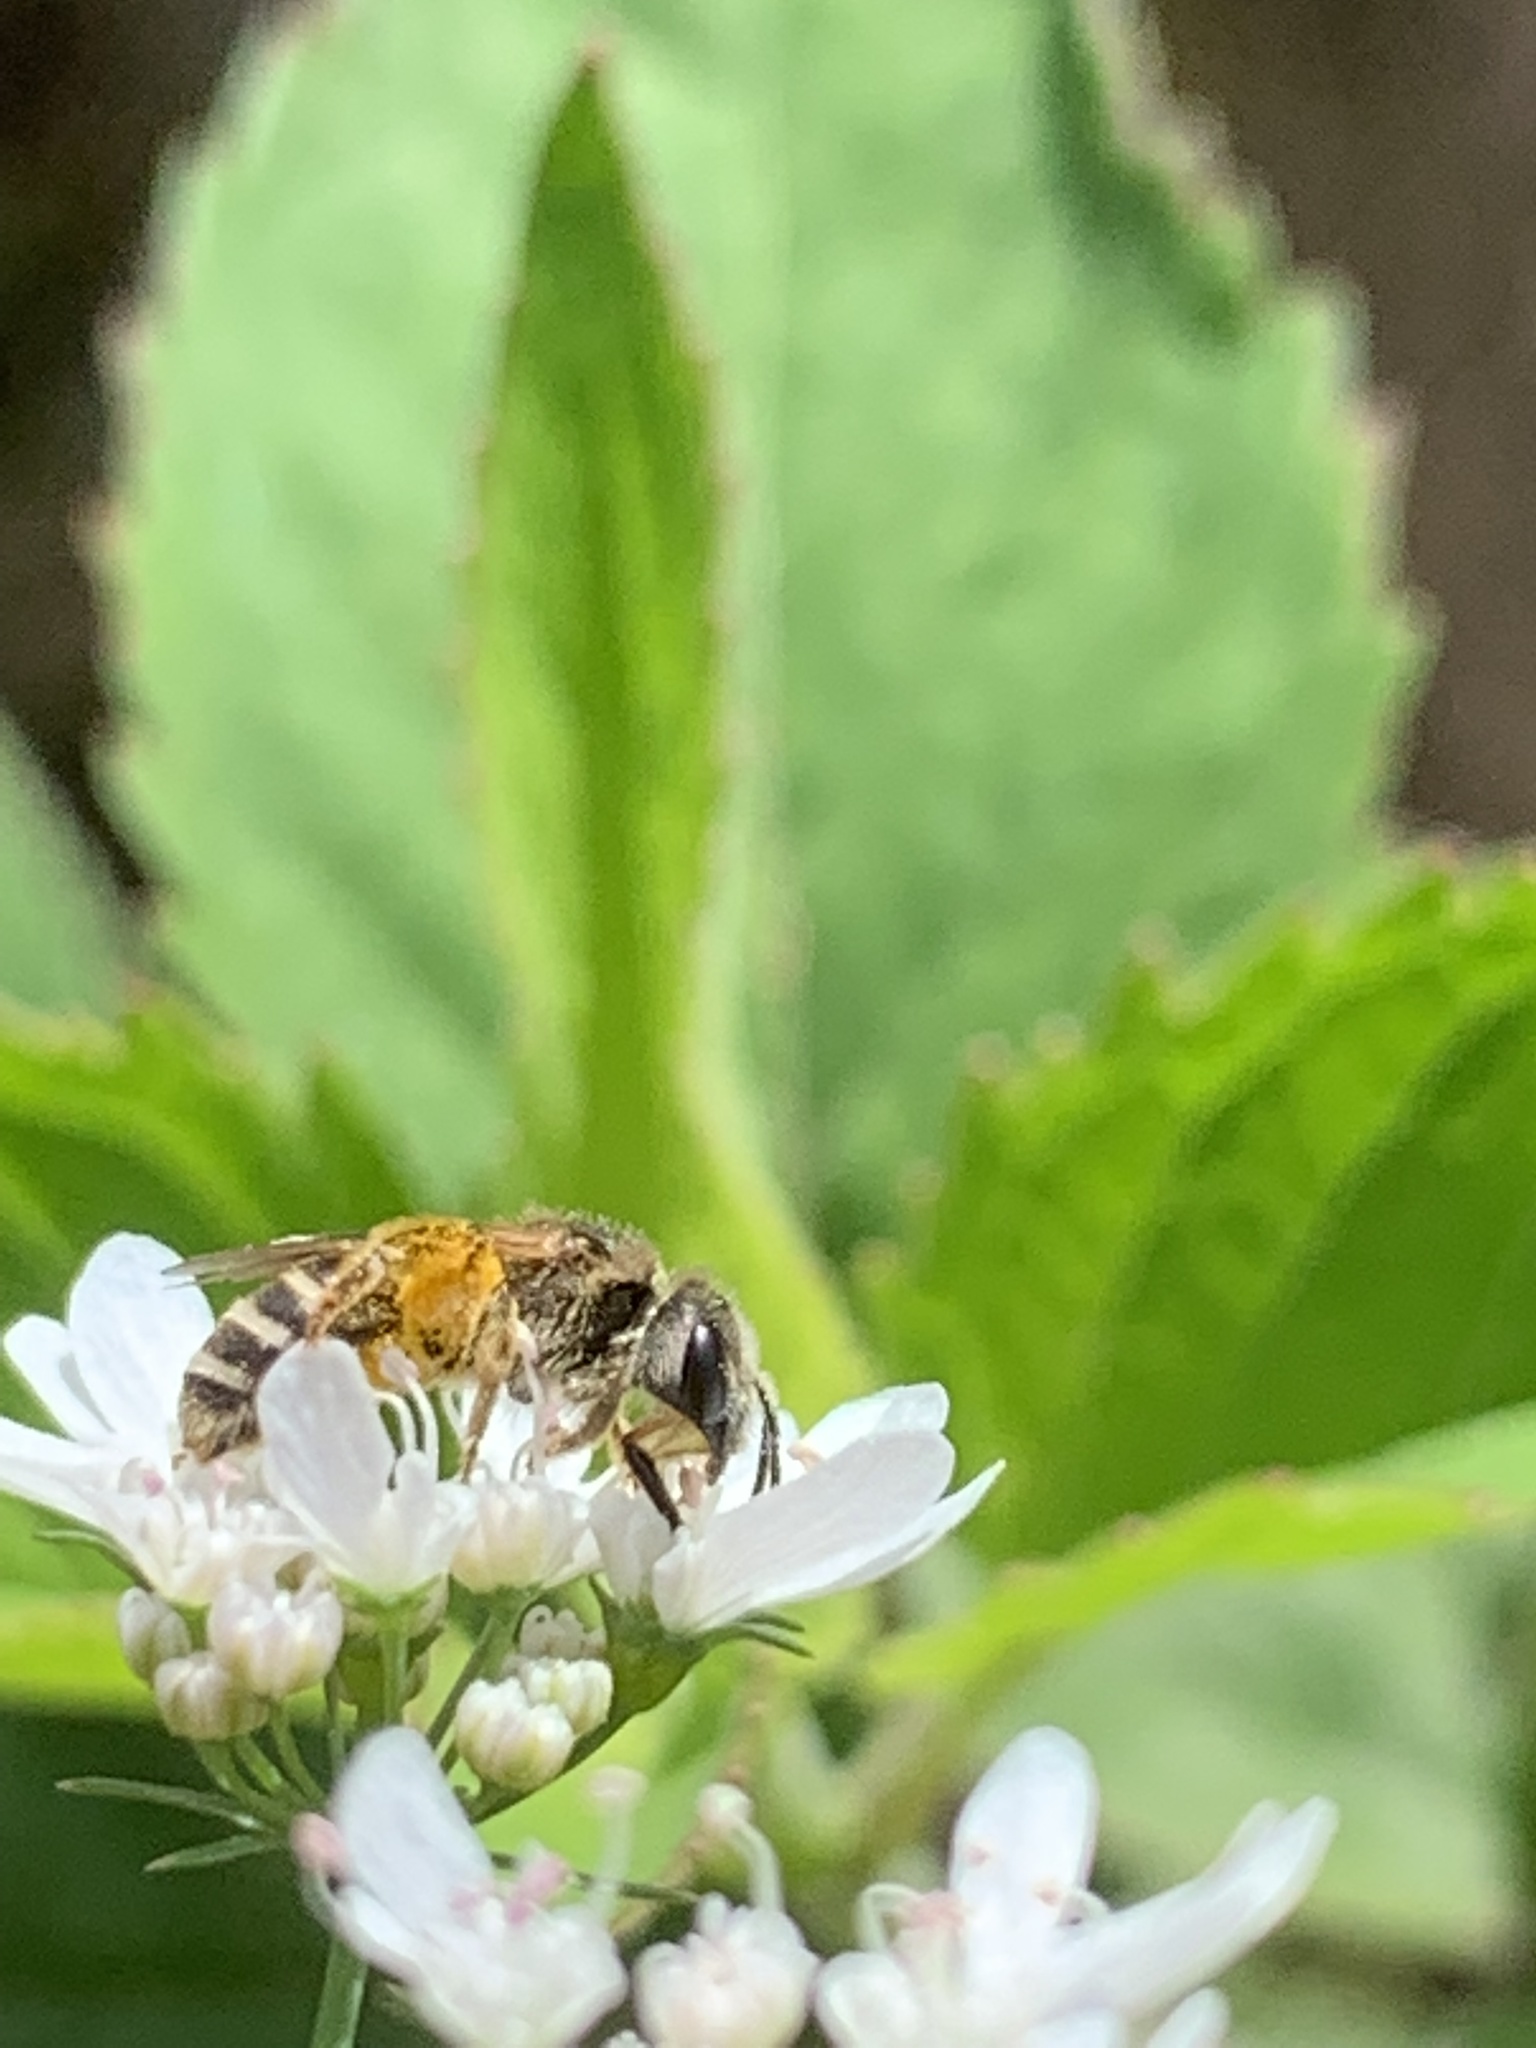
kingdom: Animalia
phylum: Arthropoda
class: Insecta
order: Hymenoptera
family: Halictidae
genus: Halictus
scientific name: Halictus ligatus
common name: Ligated furrow bee
